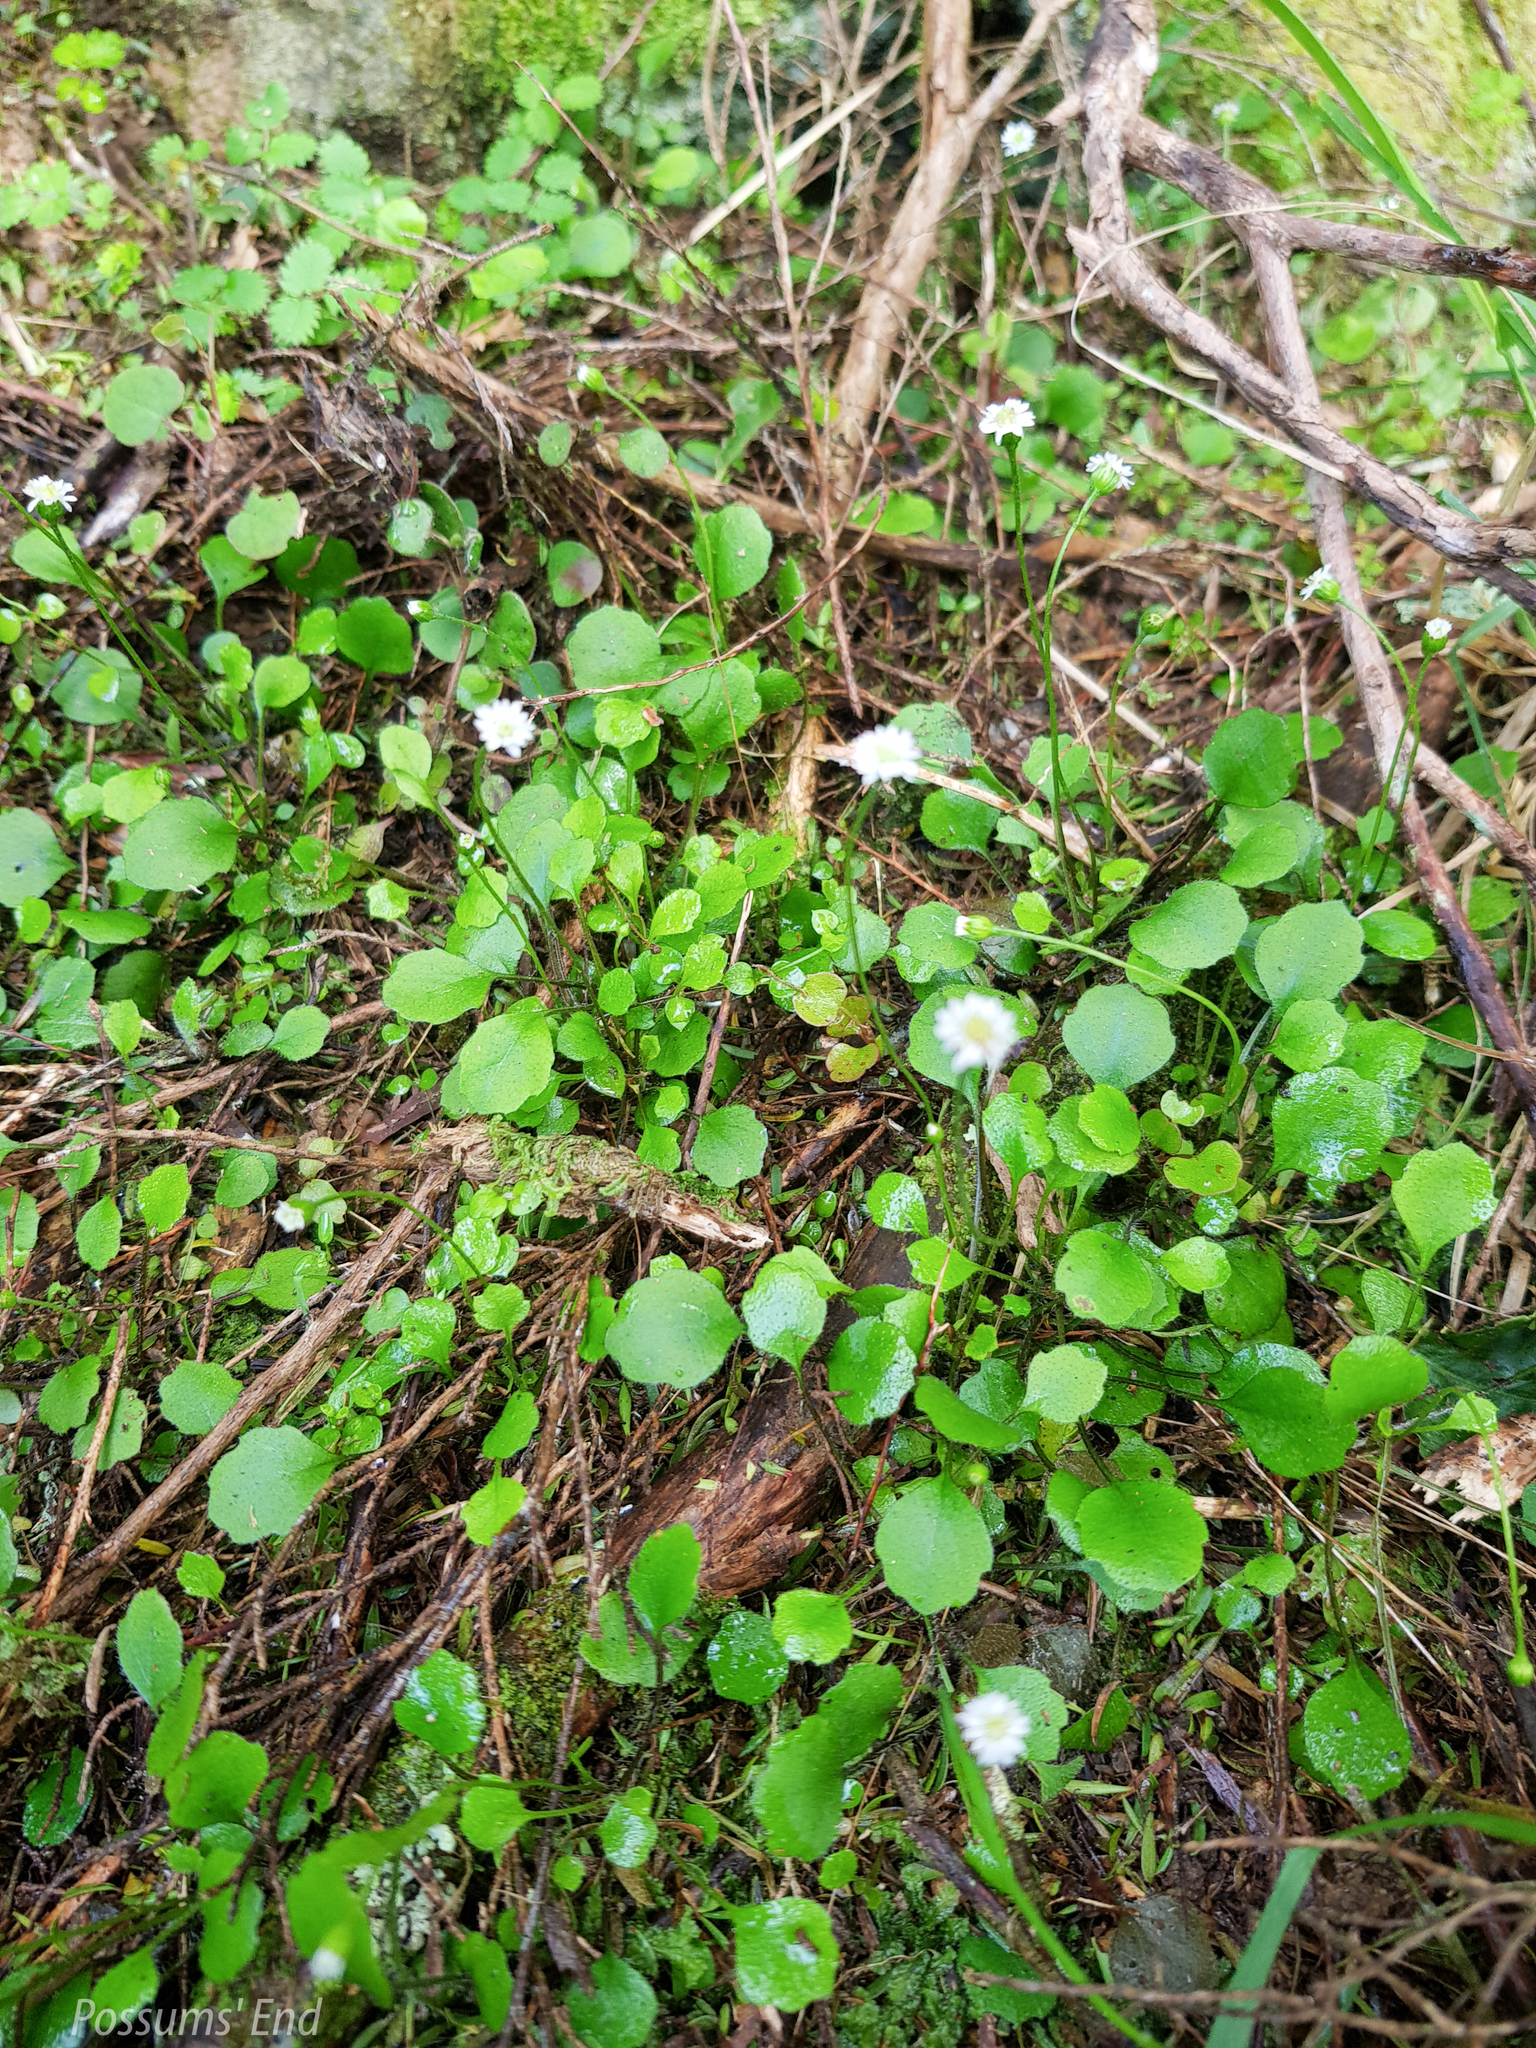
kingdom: Plantae
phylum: Tracheophyta
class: Magnoliopsida
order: Asterales
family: Asteraceae
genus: Lagenophora
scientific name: Lagenophora strangulata
